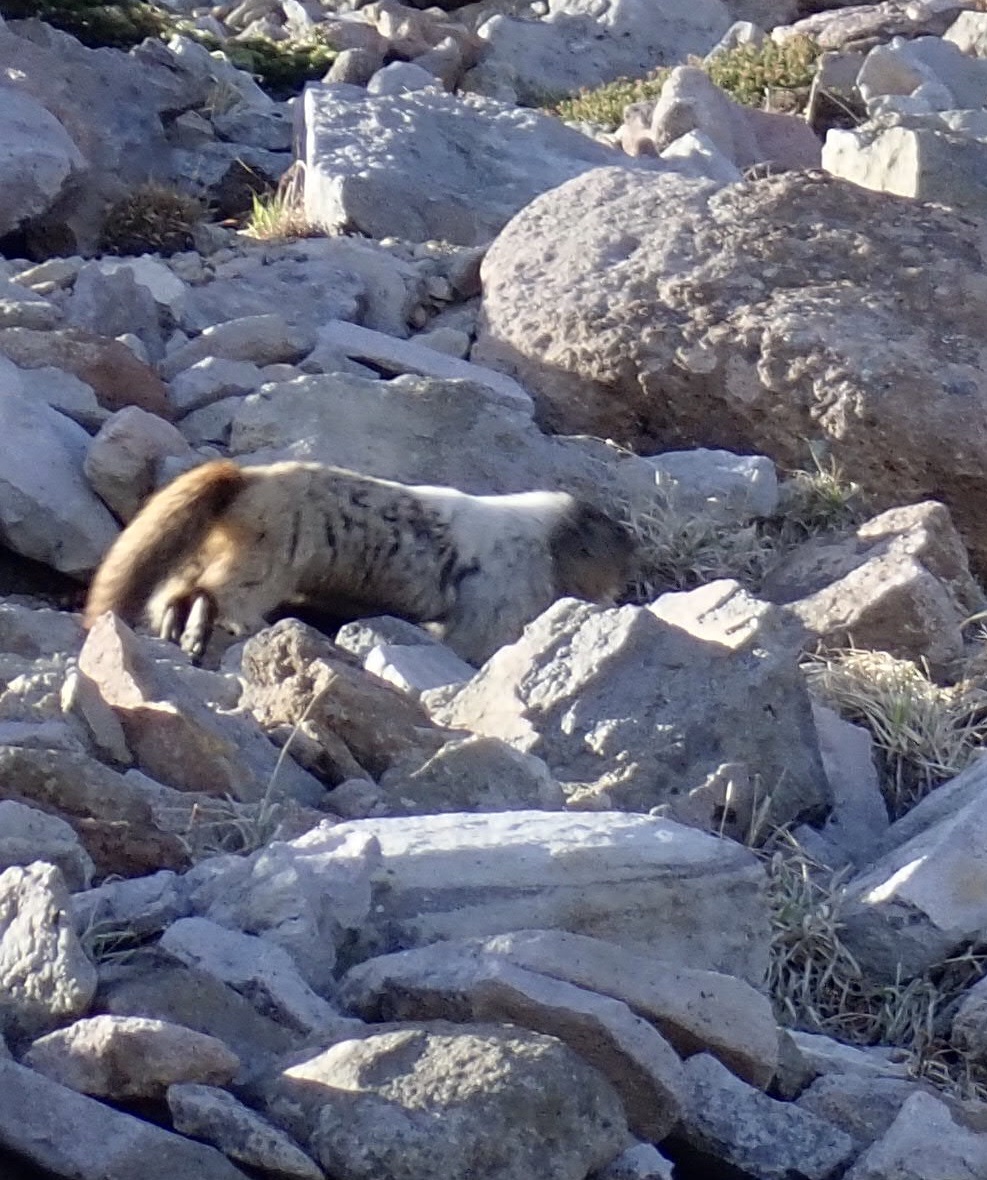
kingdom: Animalia
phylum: Chordata
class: Mammalia
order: Rodentia
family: Sciuridae
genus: Marmota
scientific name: Marmota caligata
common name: Hoary marmot
